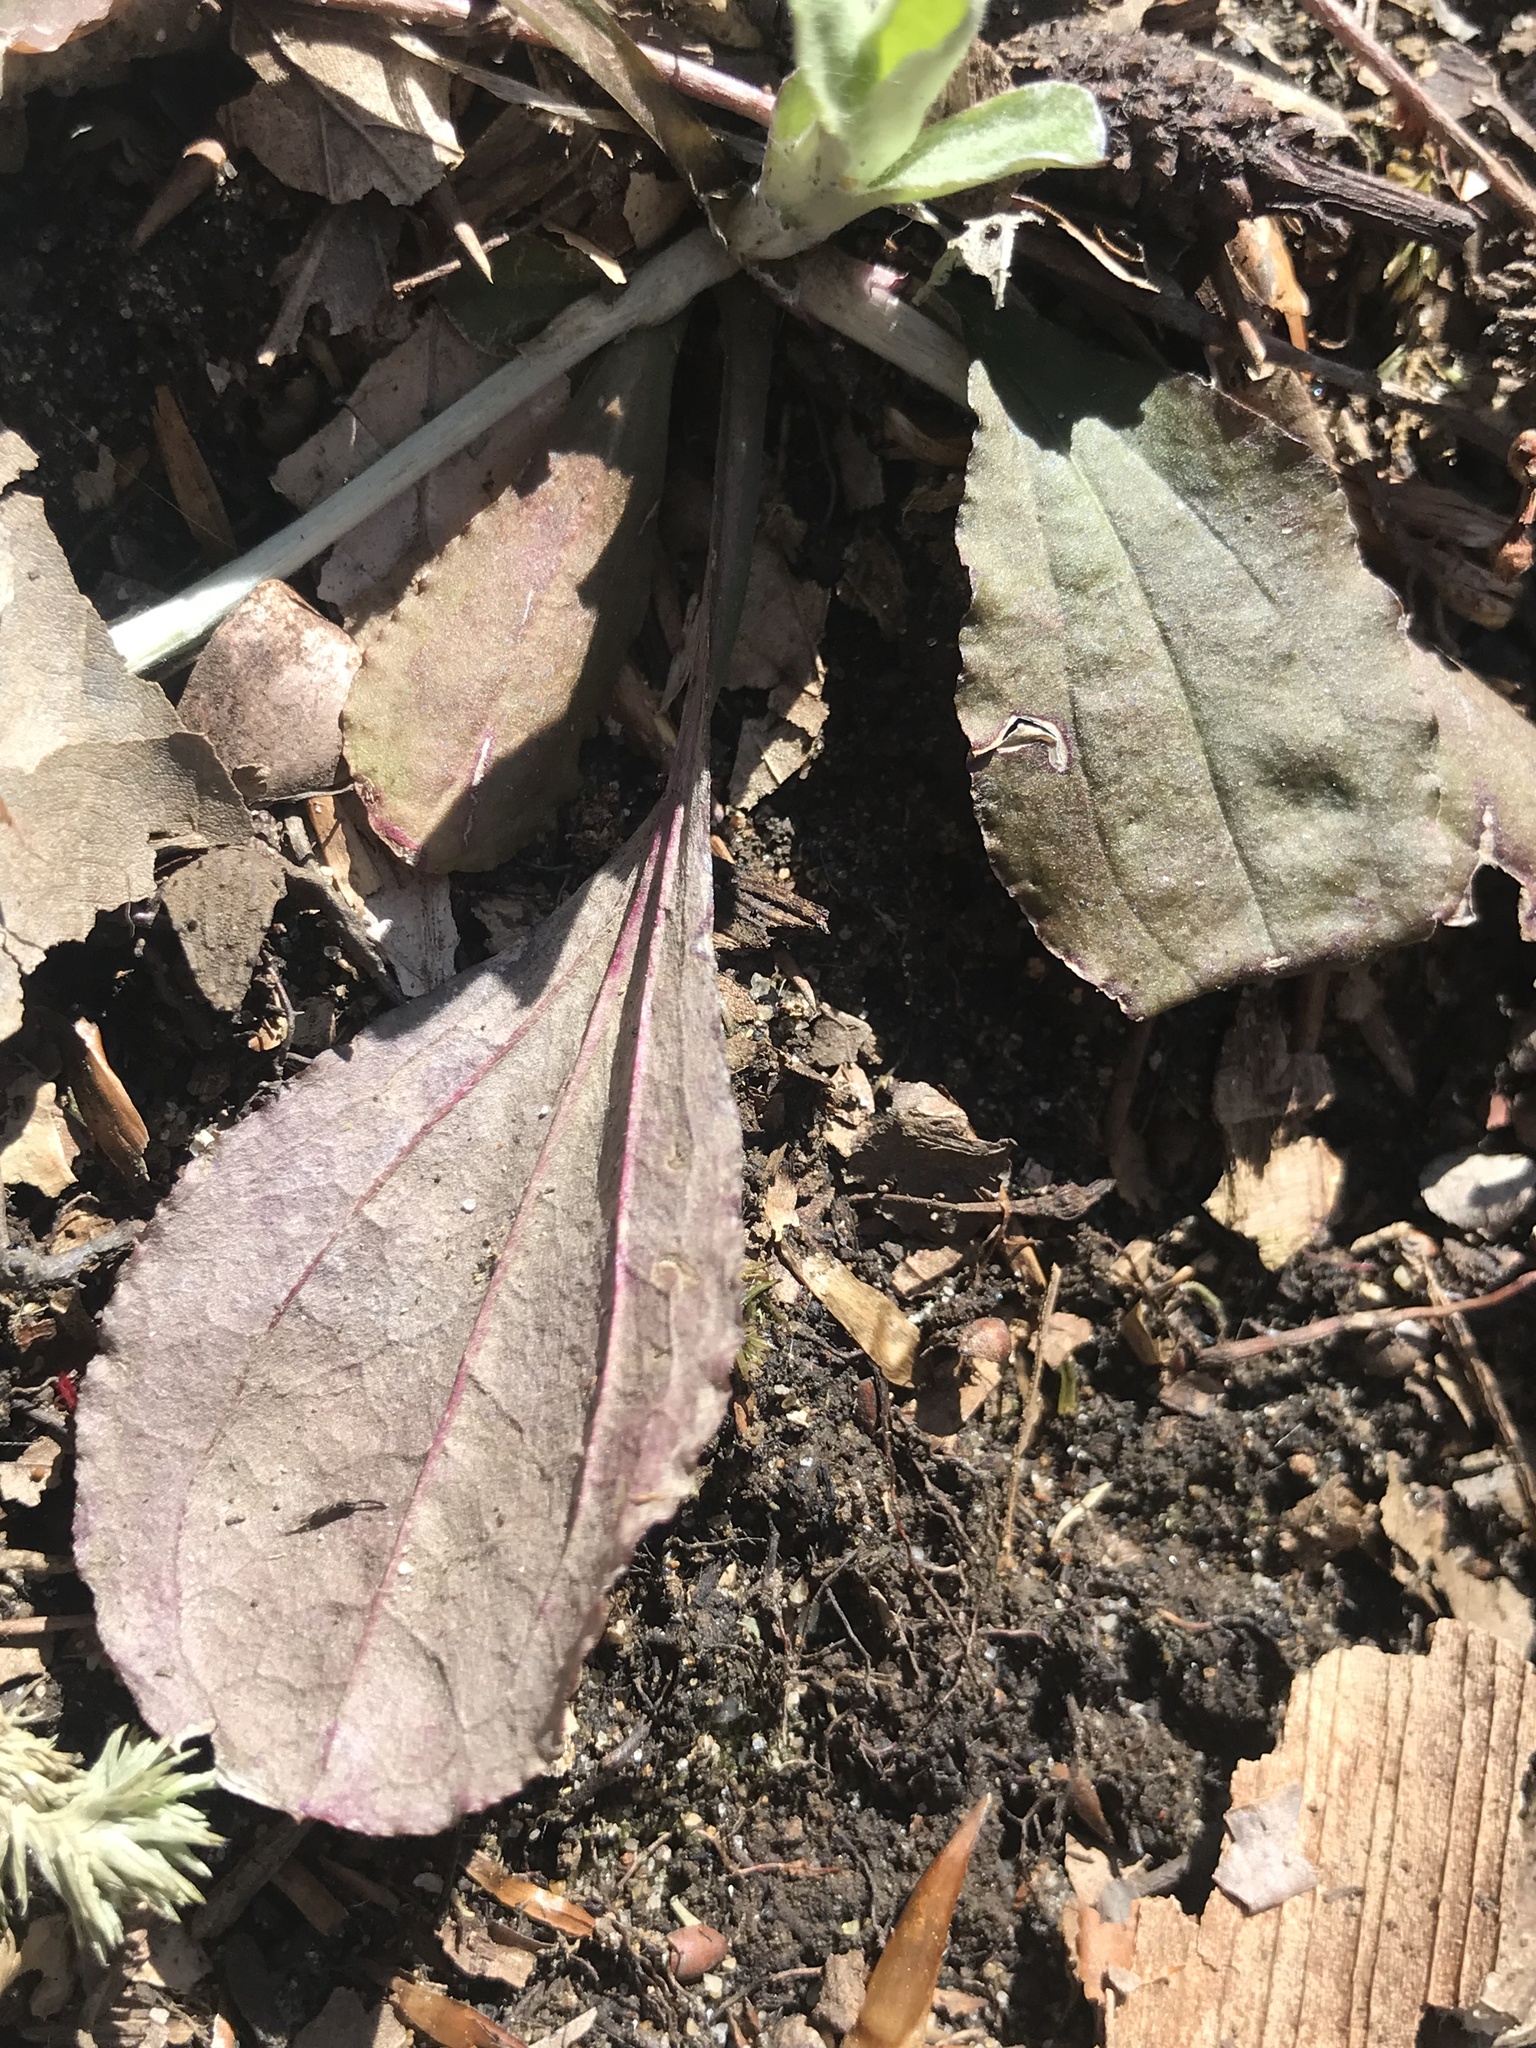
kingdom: Plantae
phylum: Tracheophyta
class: Magnoliopsida
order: Asterales
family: Asteraceae
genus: Antennaria
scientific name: Antennaria solitaria
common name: Single-head pussytoes
